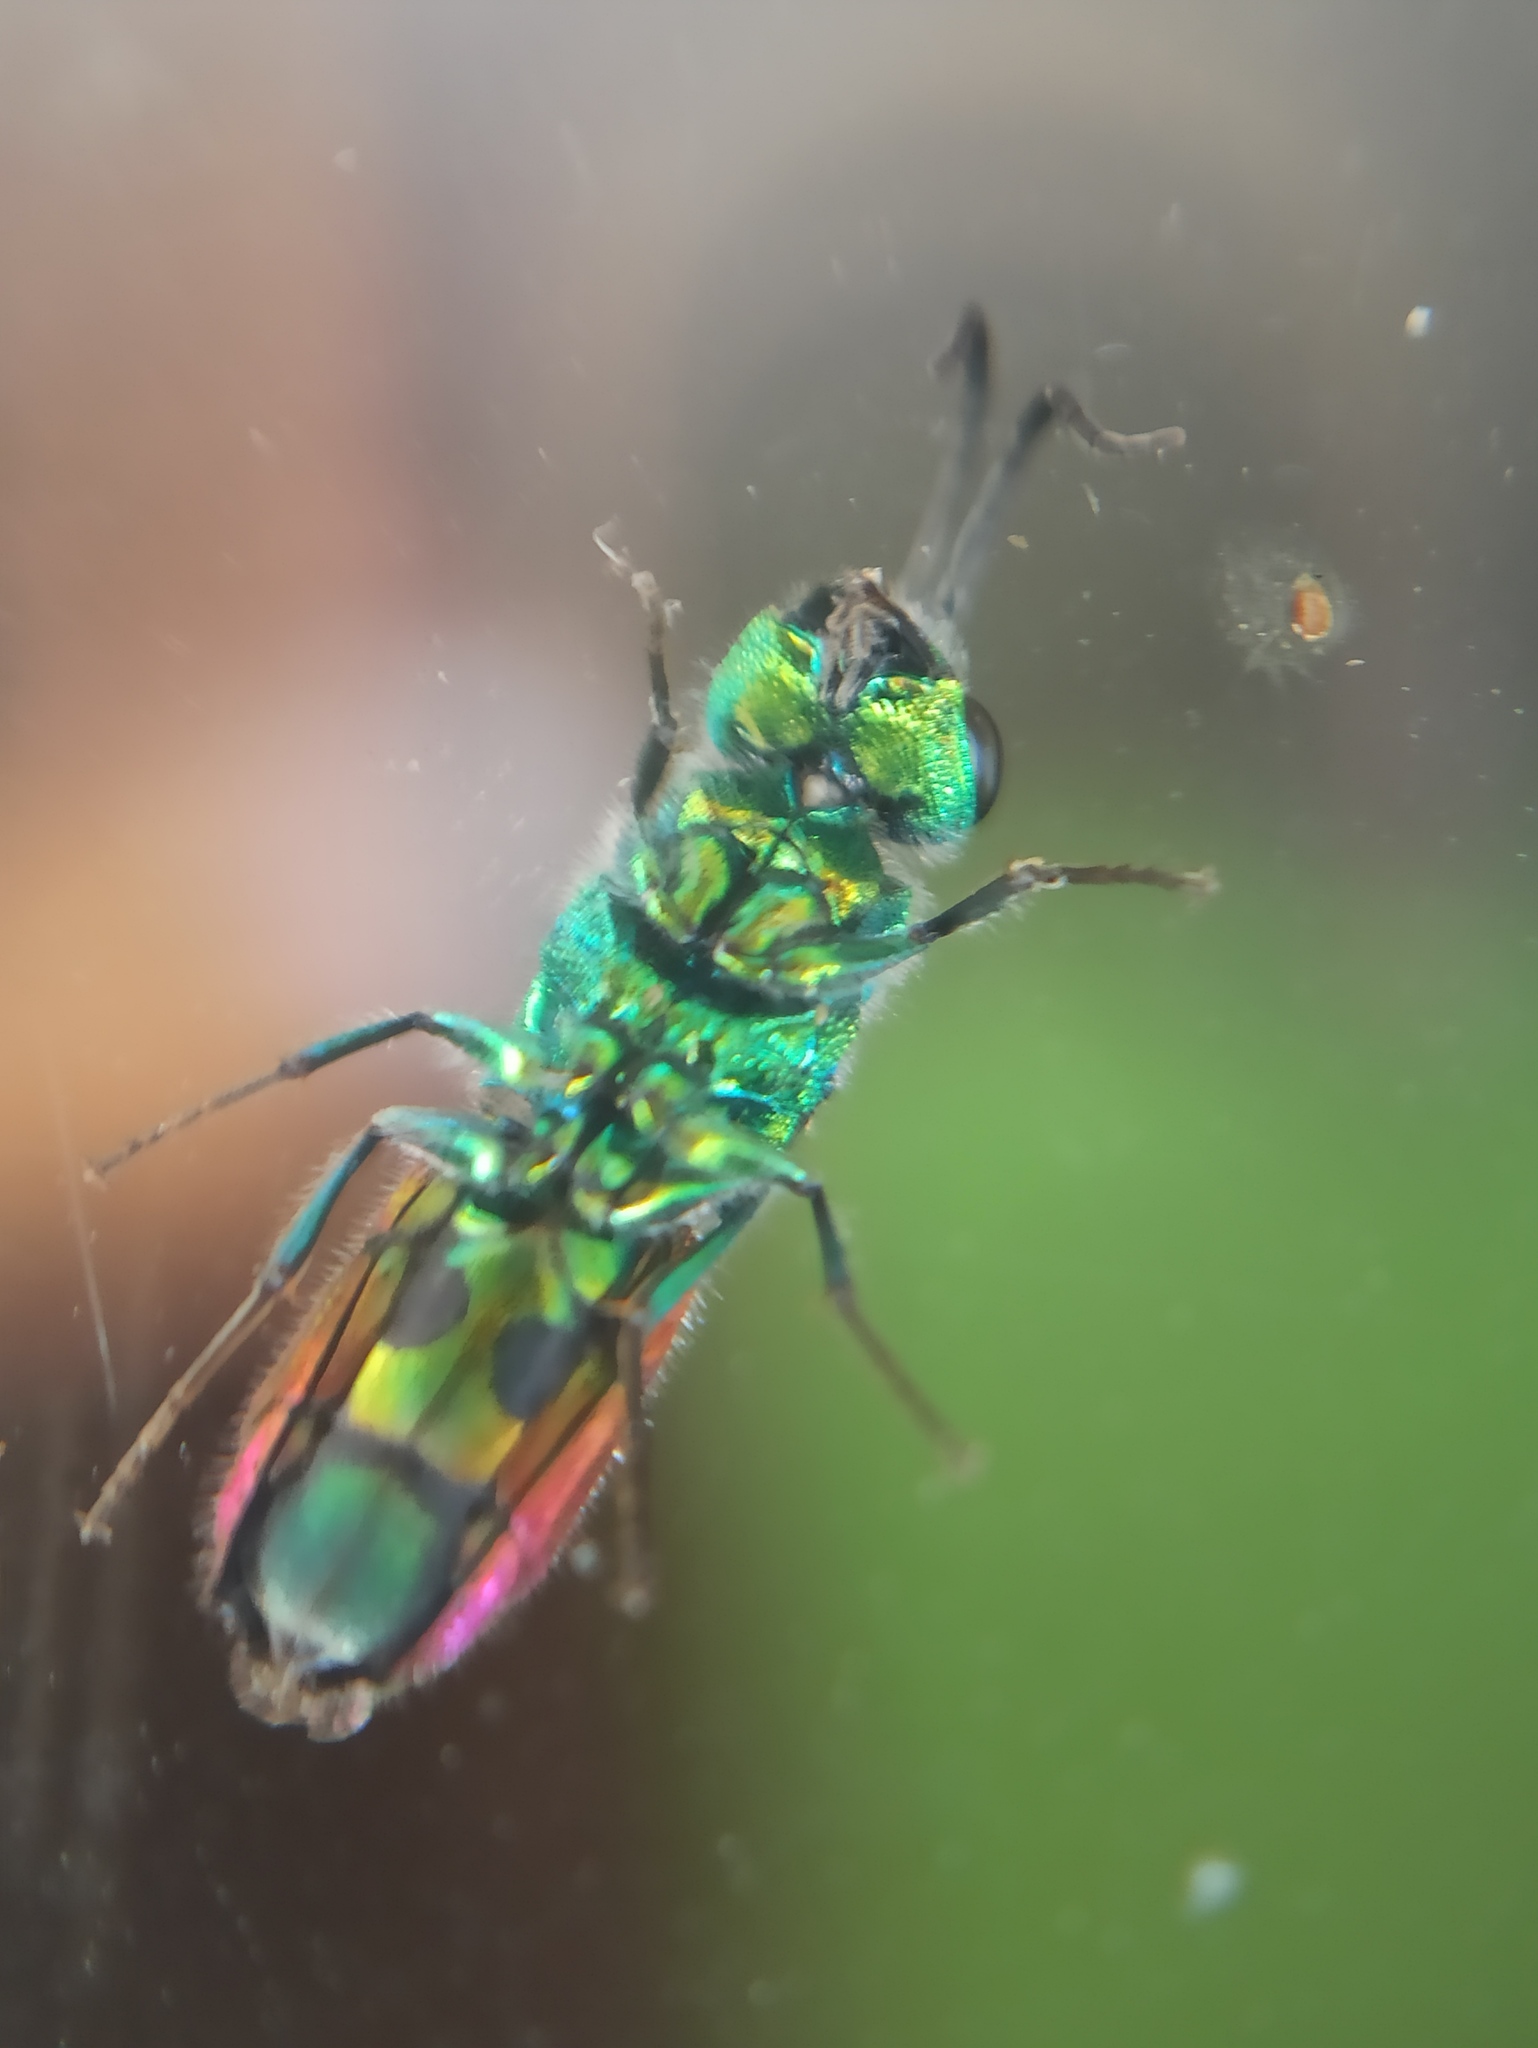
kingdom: Animalia
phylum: Arthropoda
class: Insecta
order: Hymenoptera
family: Chrysididae
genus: Chrysis
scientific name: Chrysis terminata
